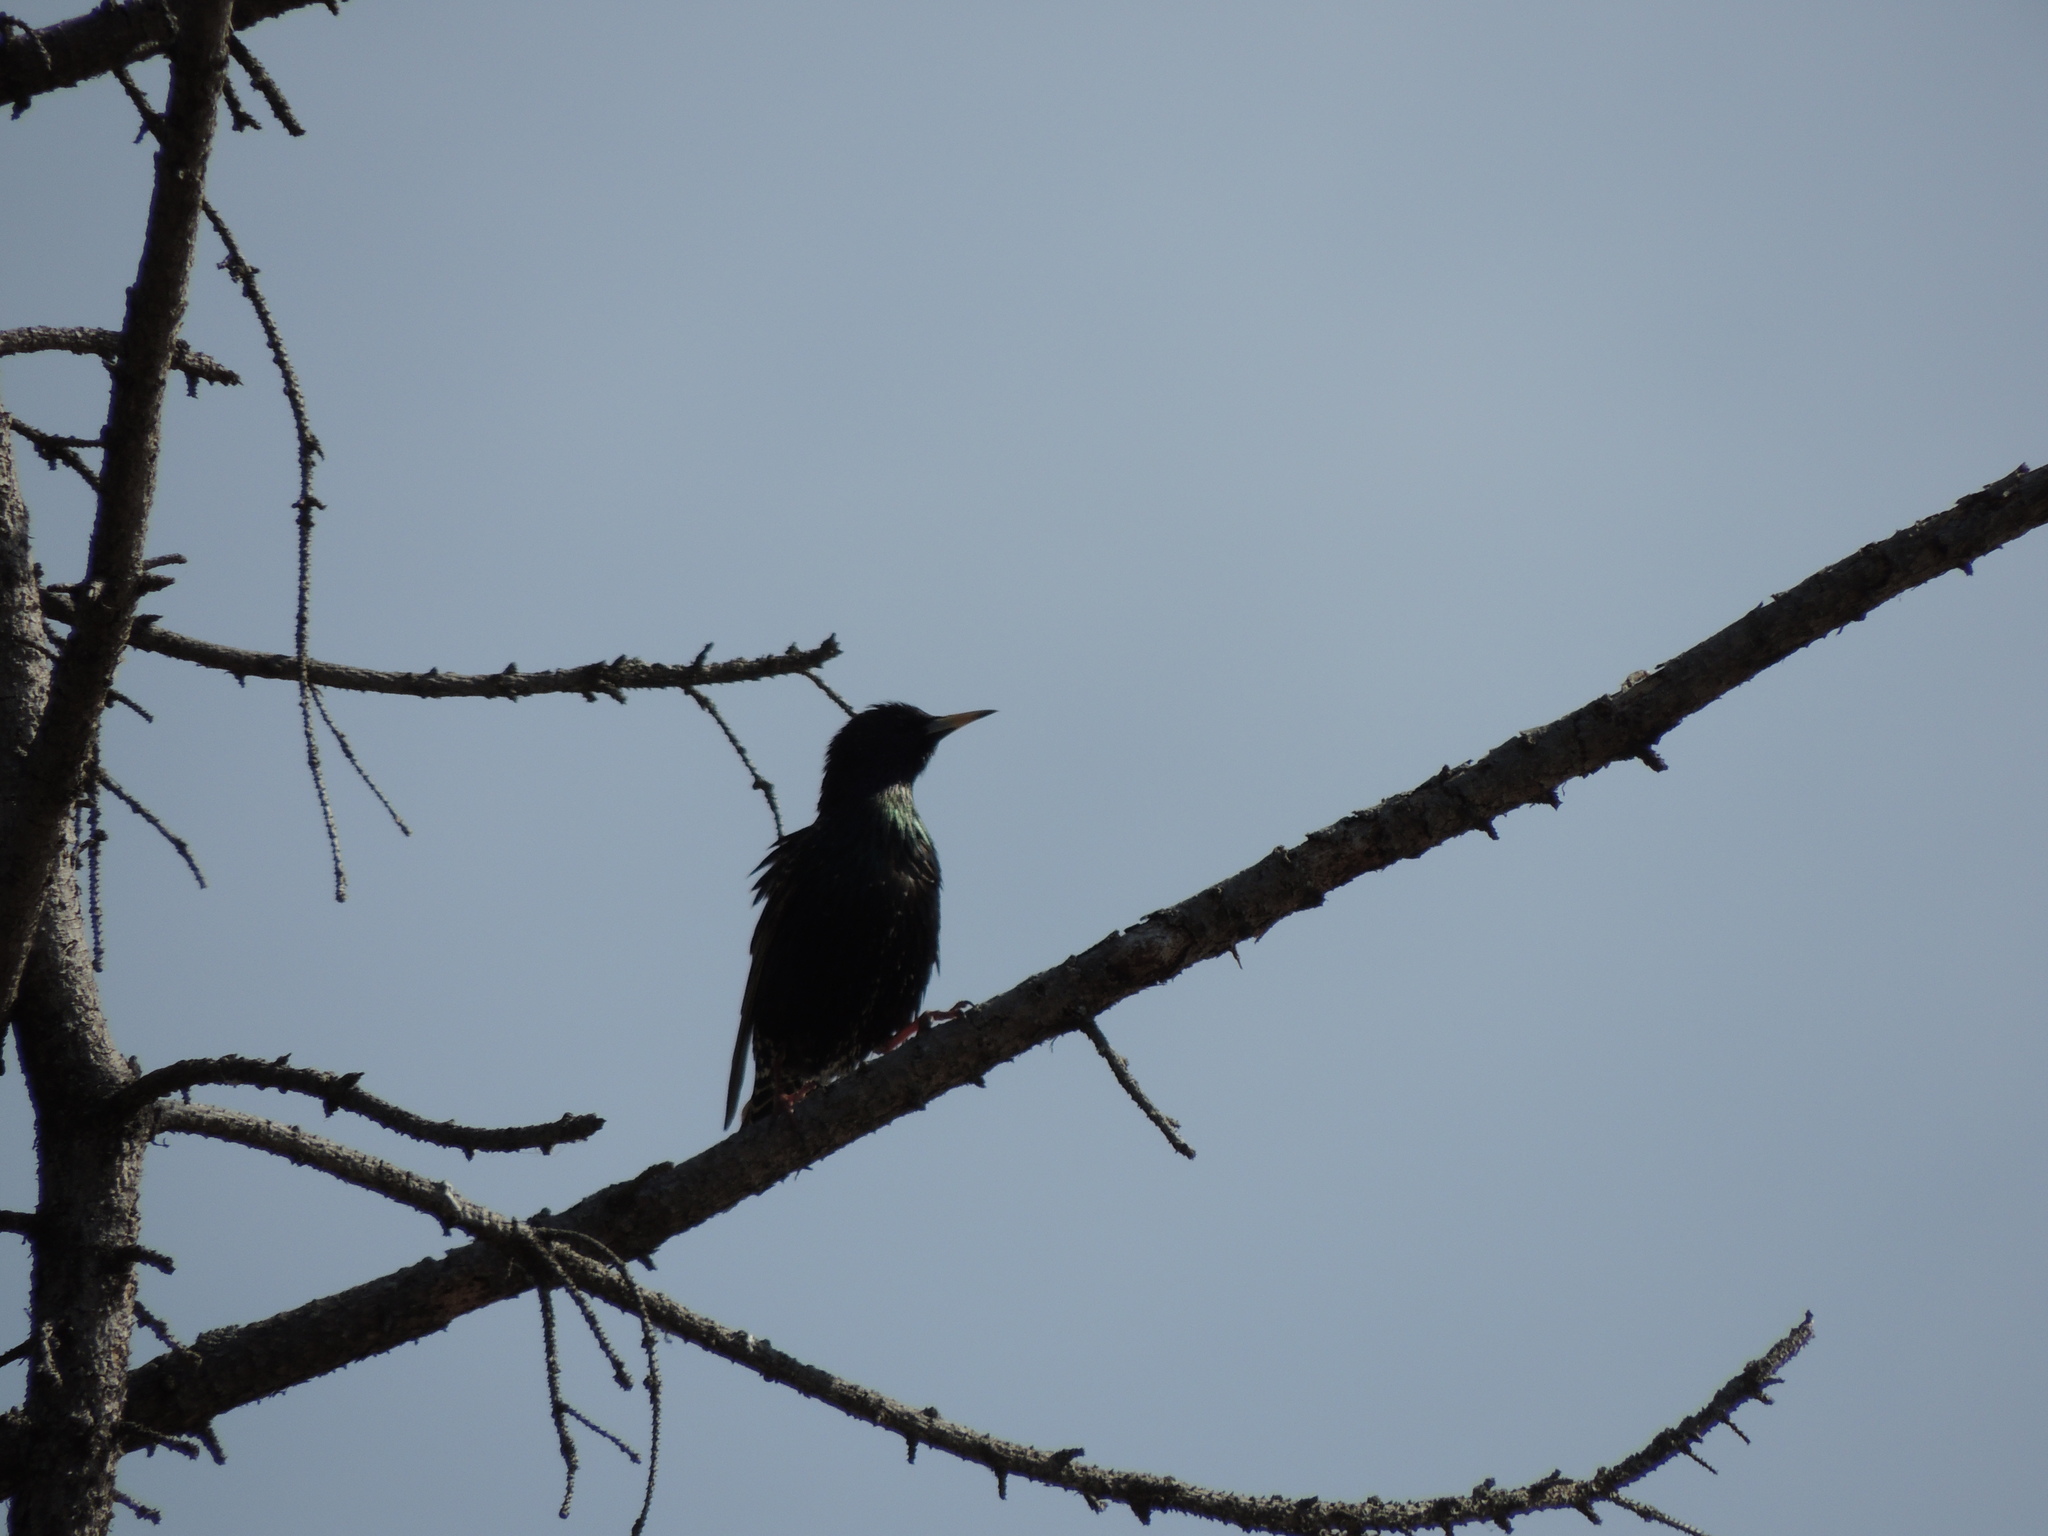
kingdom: Animalia
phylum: Chordata
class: Aves
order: Passeriformes
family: Sturnidae
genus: Sturnus
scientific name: Sturnus vulgaris
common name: Common starling
